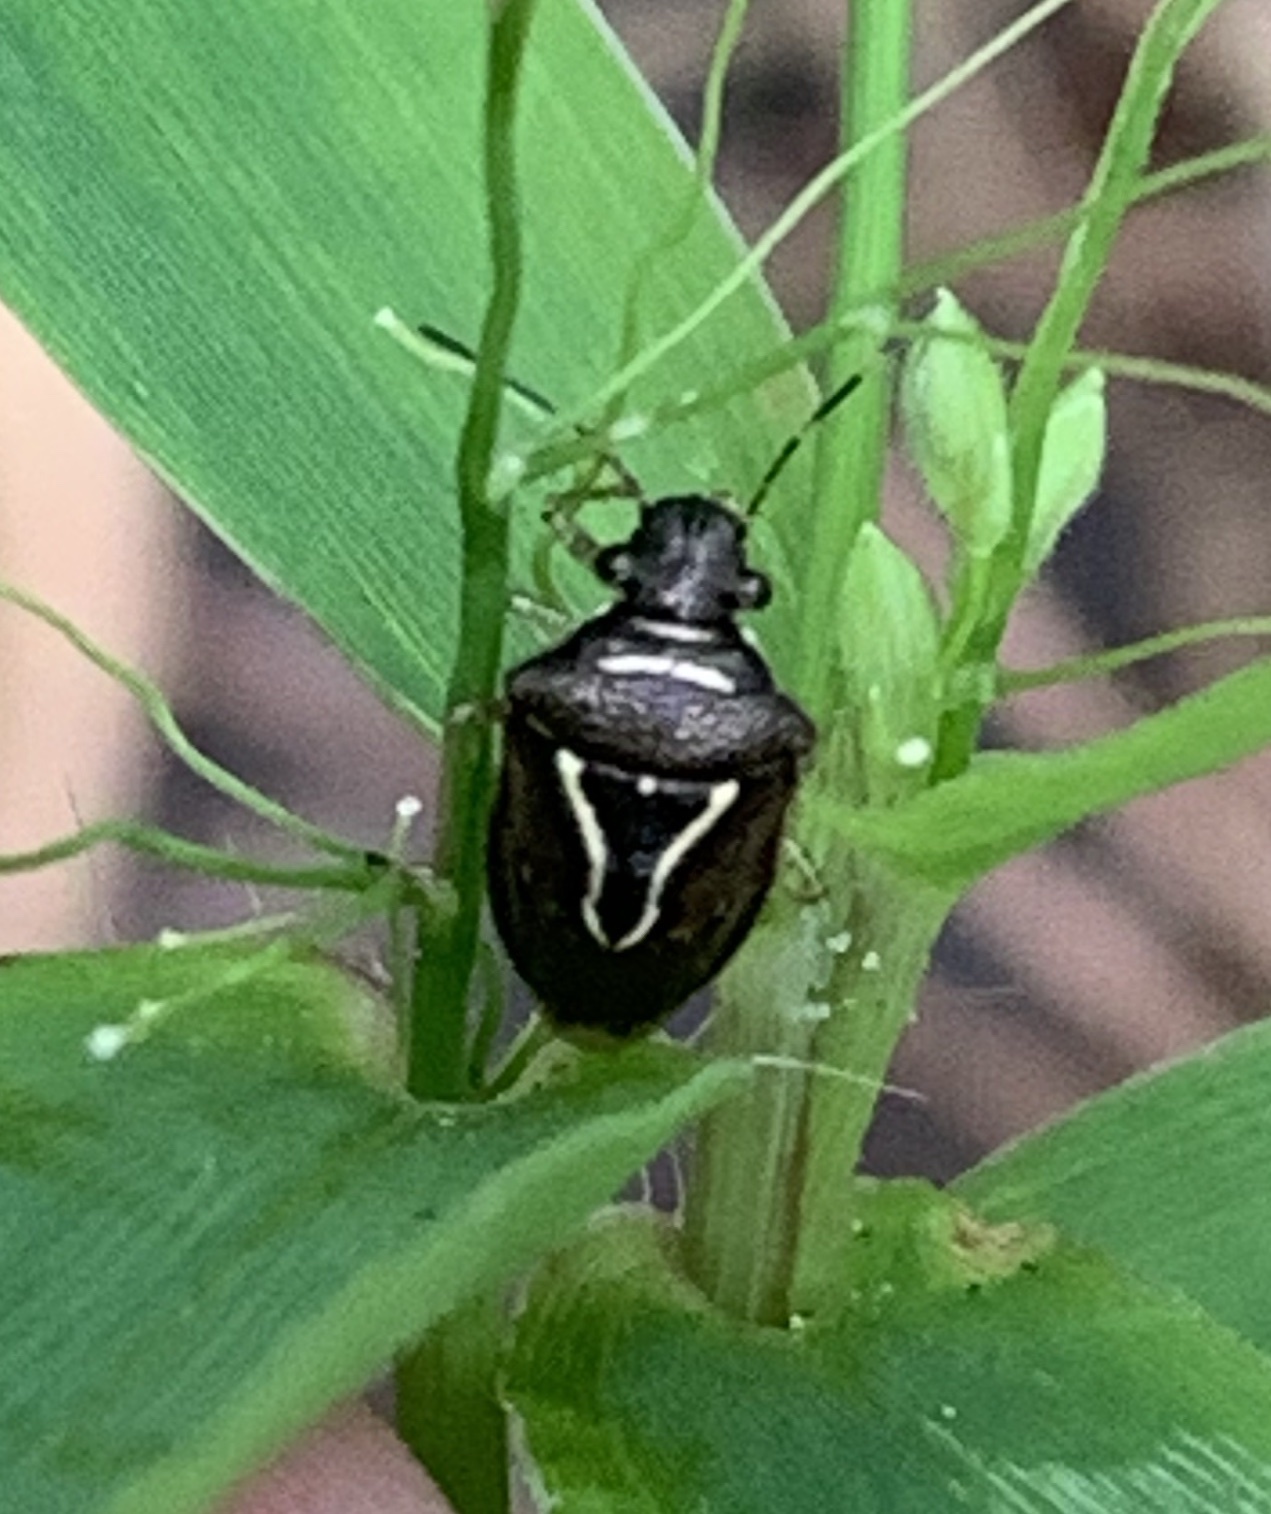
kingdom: Animalia
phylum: Arthropoda
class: Insecta
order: Hemiptera
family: Pentatomidae
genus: Mormidea
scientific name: Mormidea lugens
